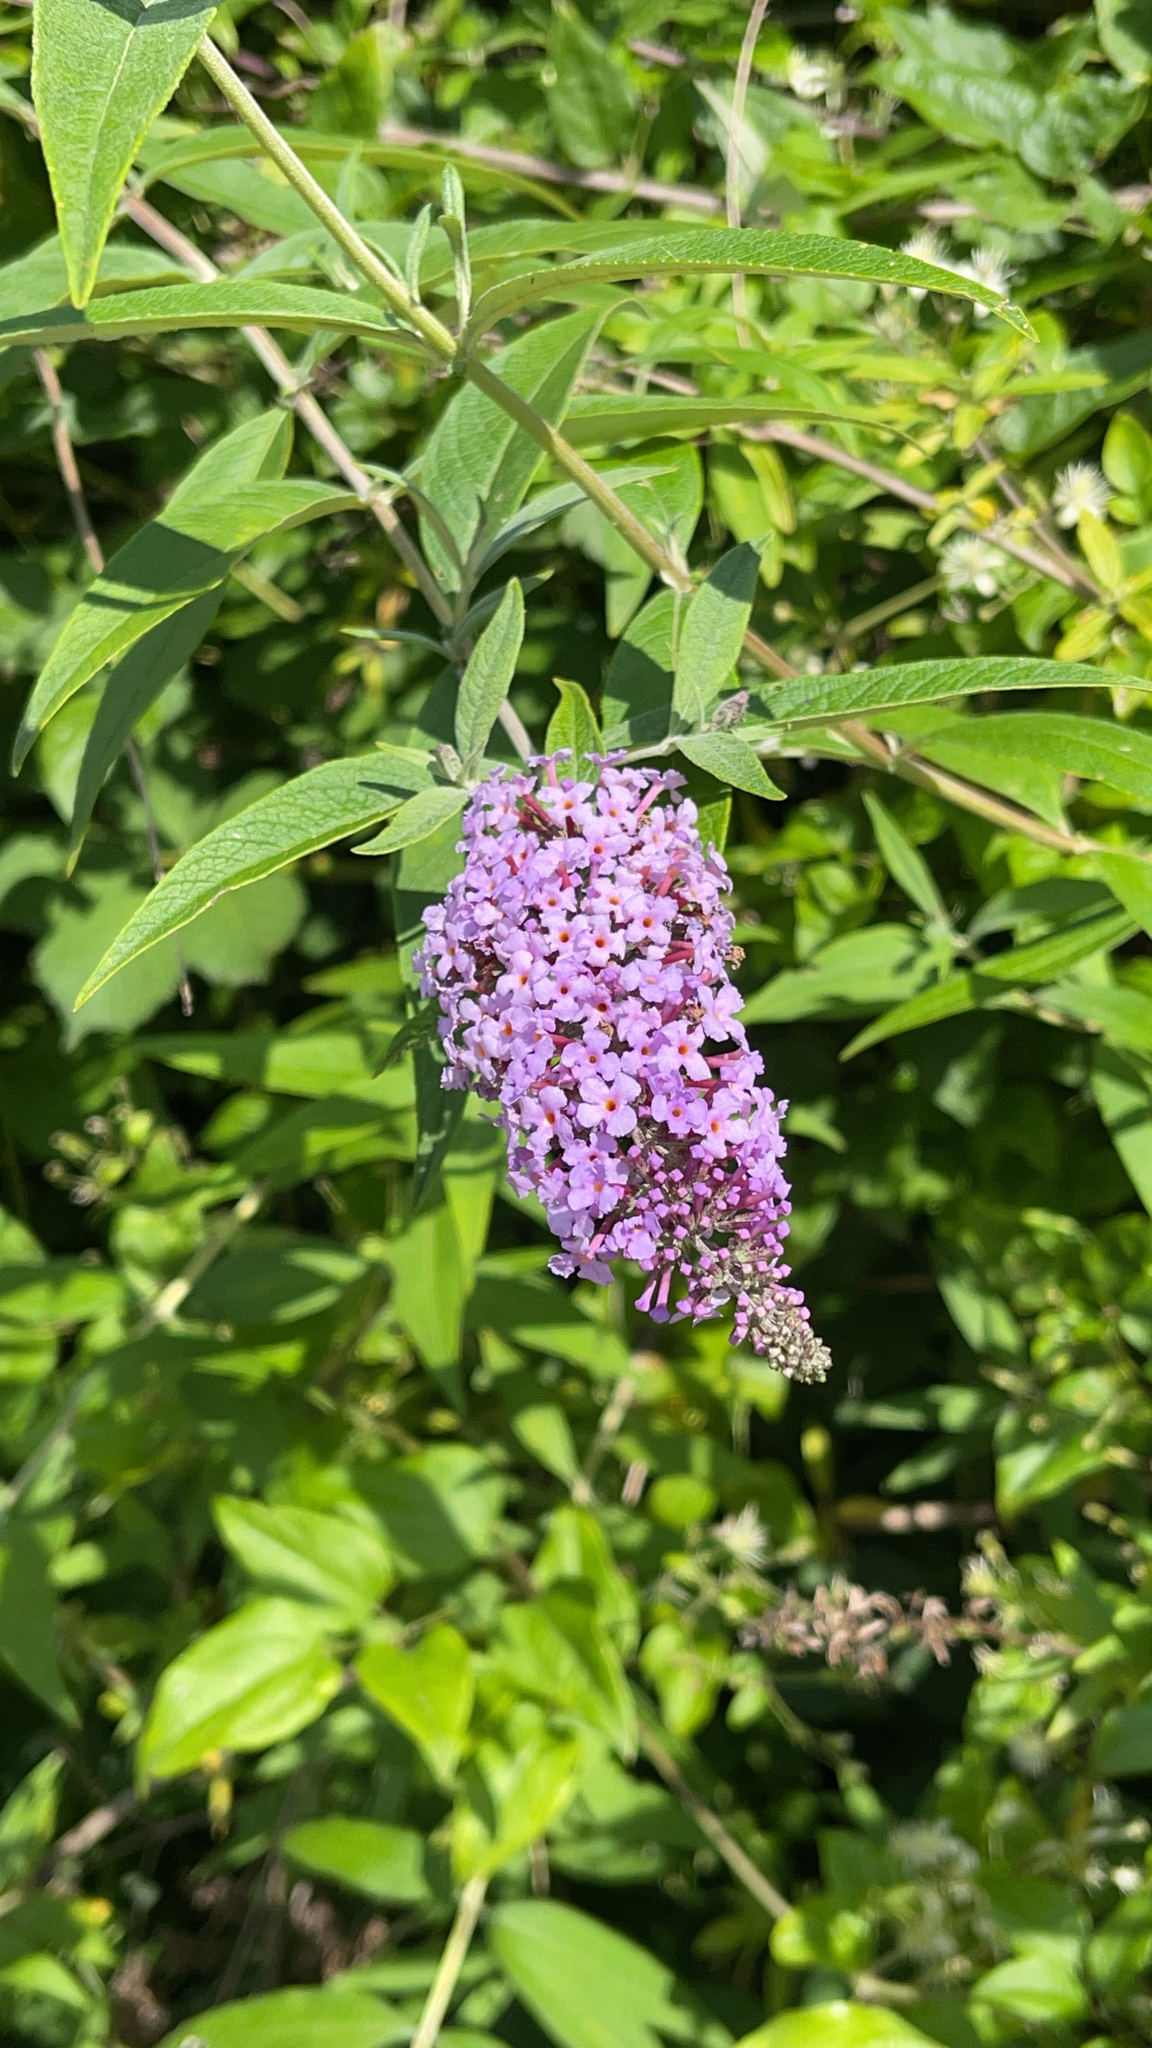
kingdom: Plantae
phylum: Tracheophyta
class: Magnoliopsida
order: Lamiales
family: Scrophulariaceae
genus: Buddleja
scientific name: Buddleja davidii
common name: Butterfly-bush
